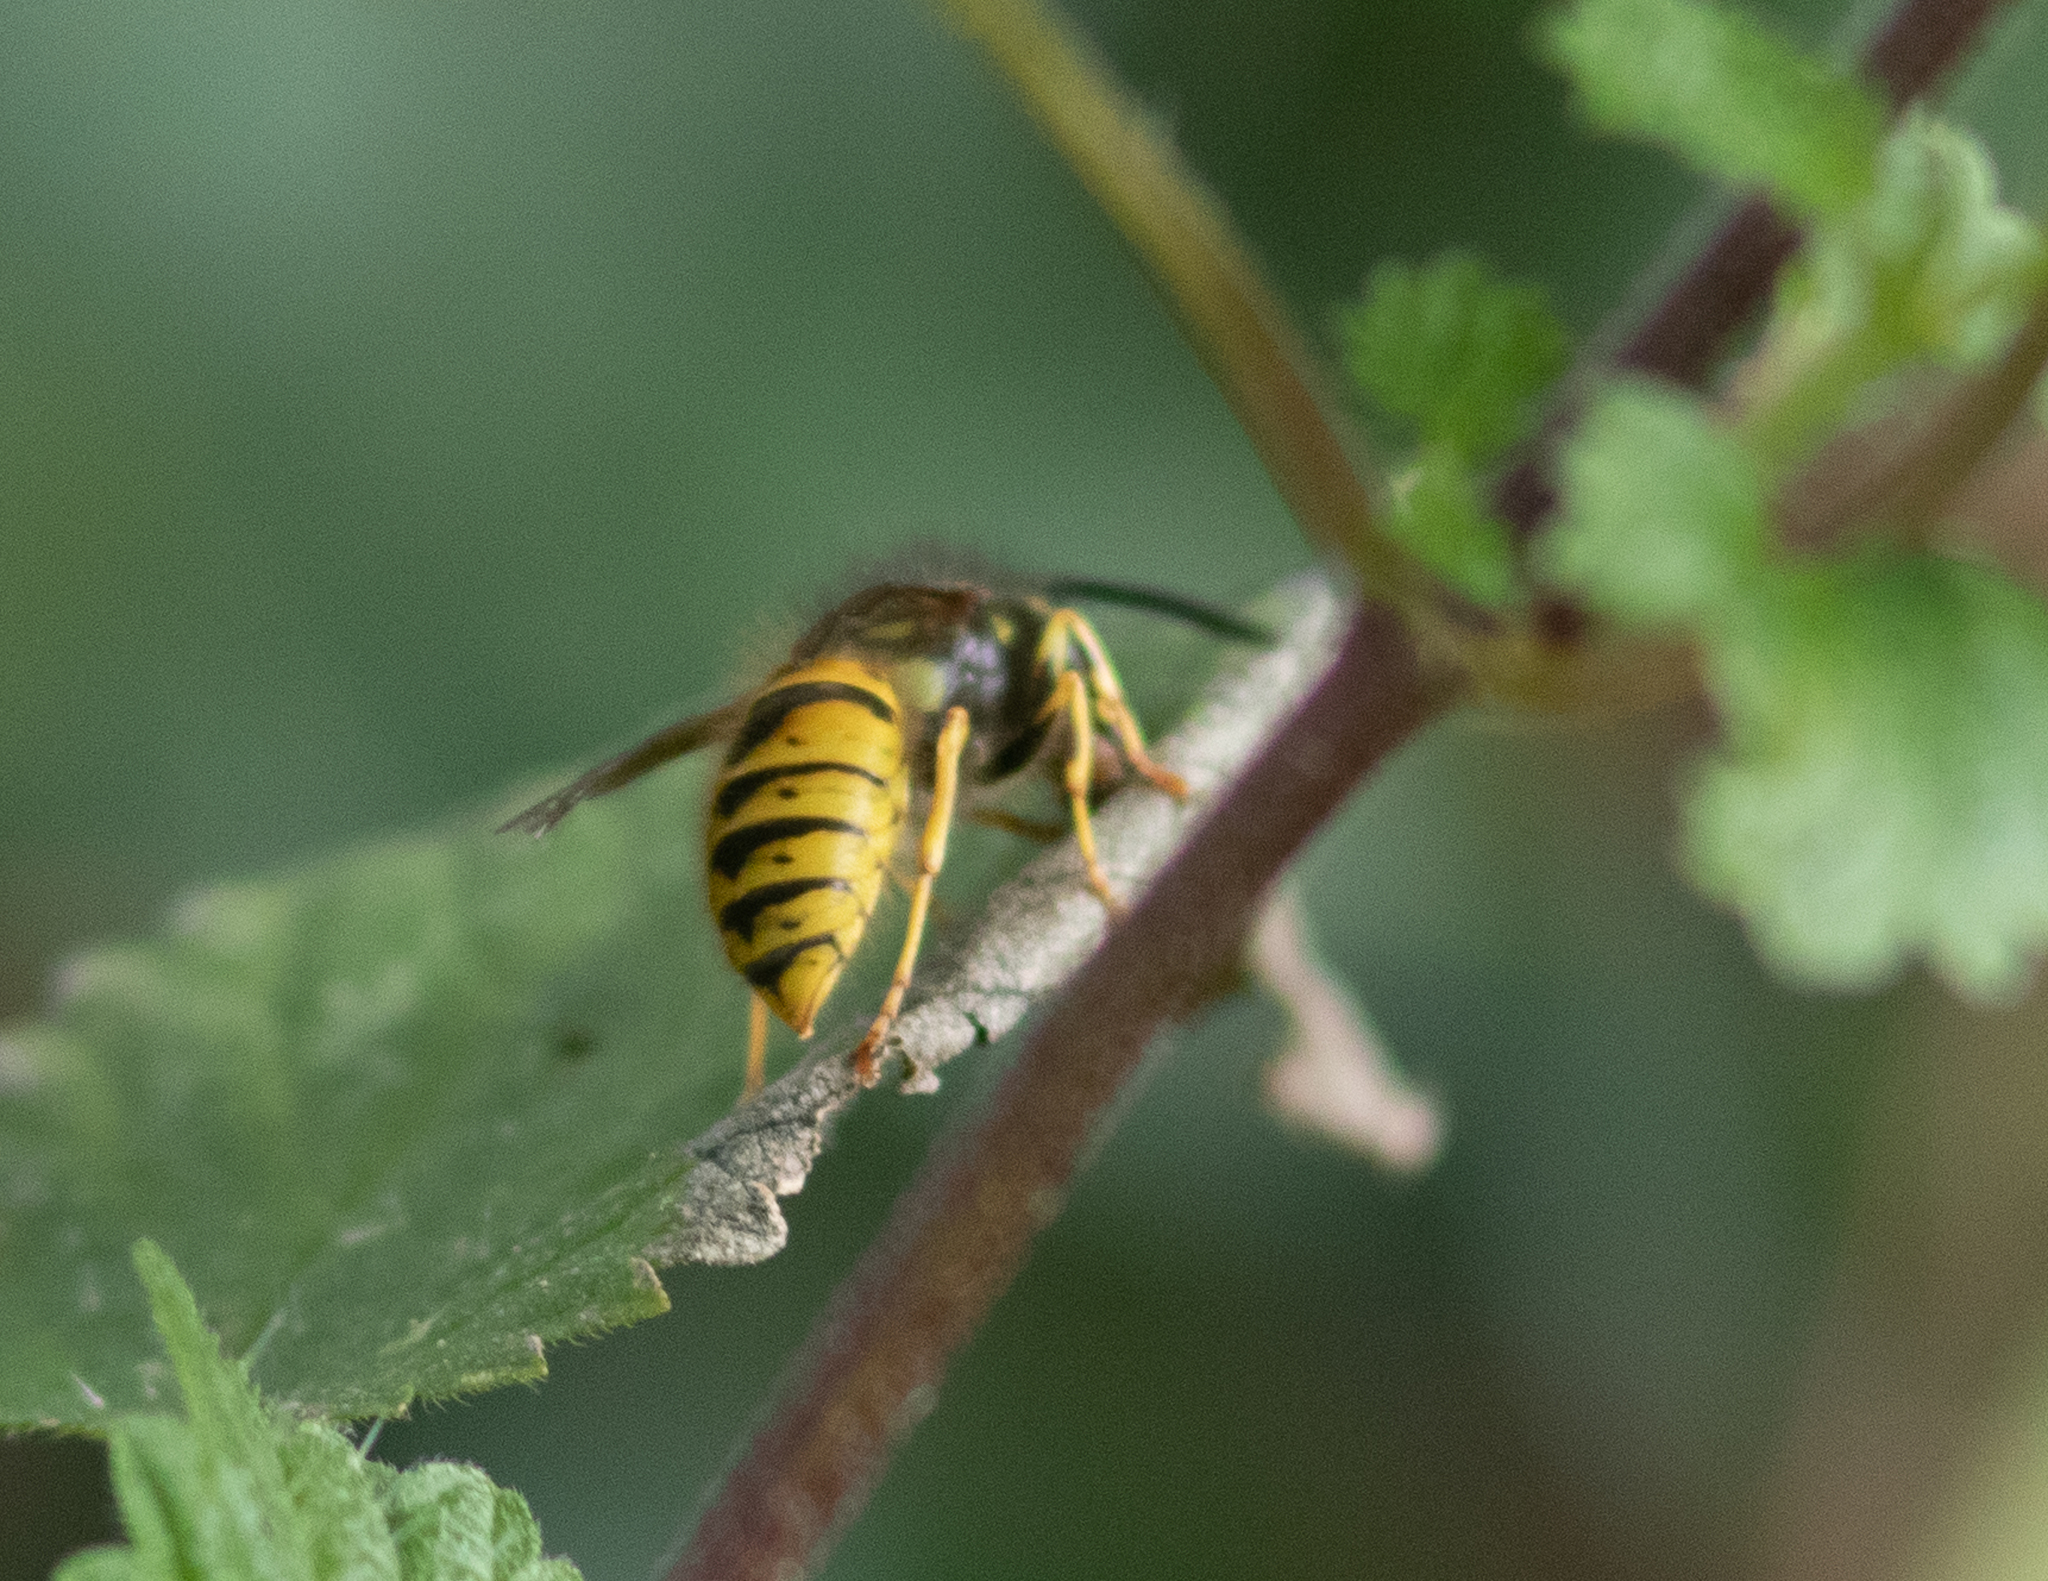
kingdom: Animalia
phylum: Arthropoda
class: Insecta
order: Hymenoptera
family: Vespidae
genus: Vespula
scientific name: Vespula vulgaris
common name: Common wasp
